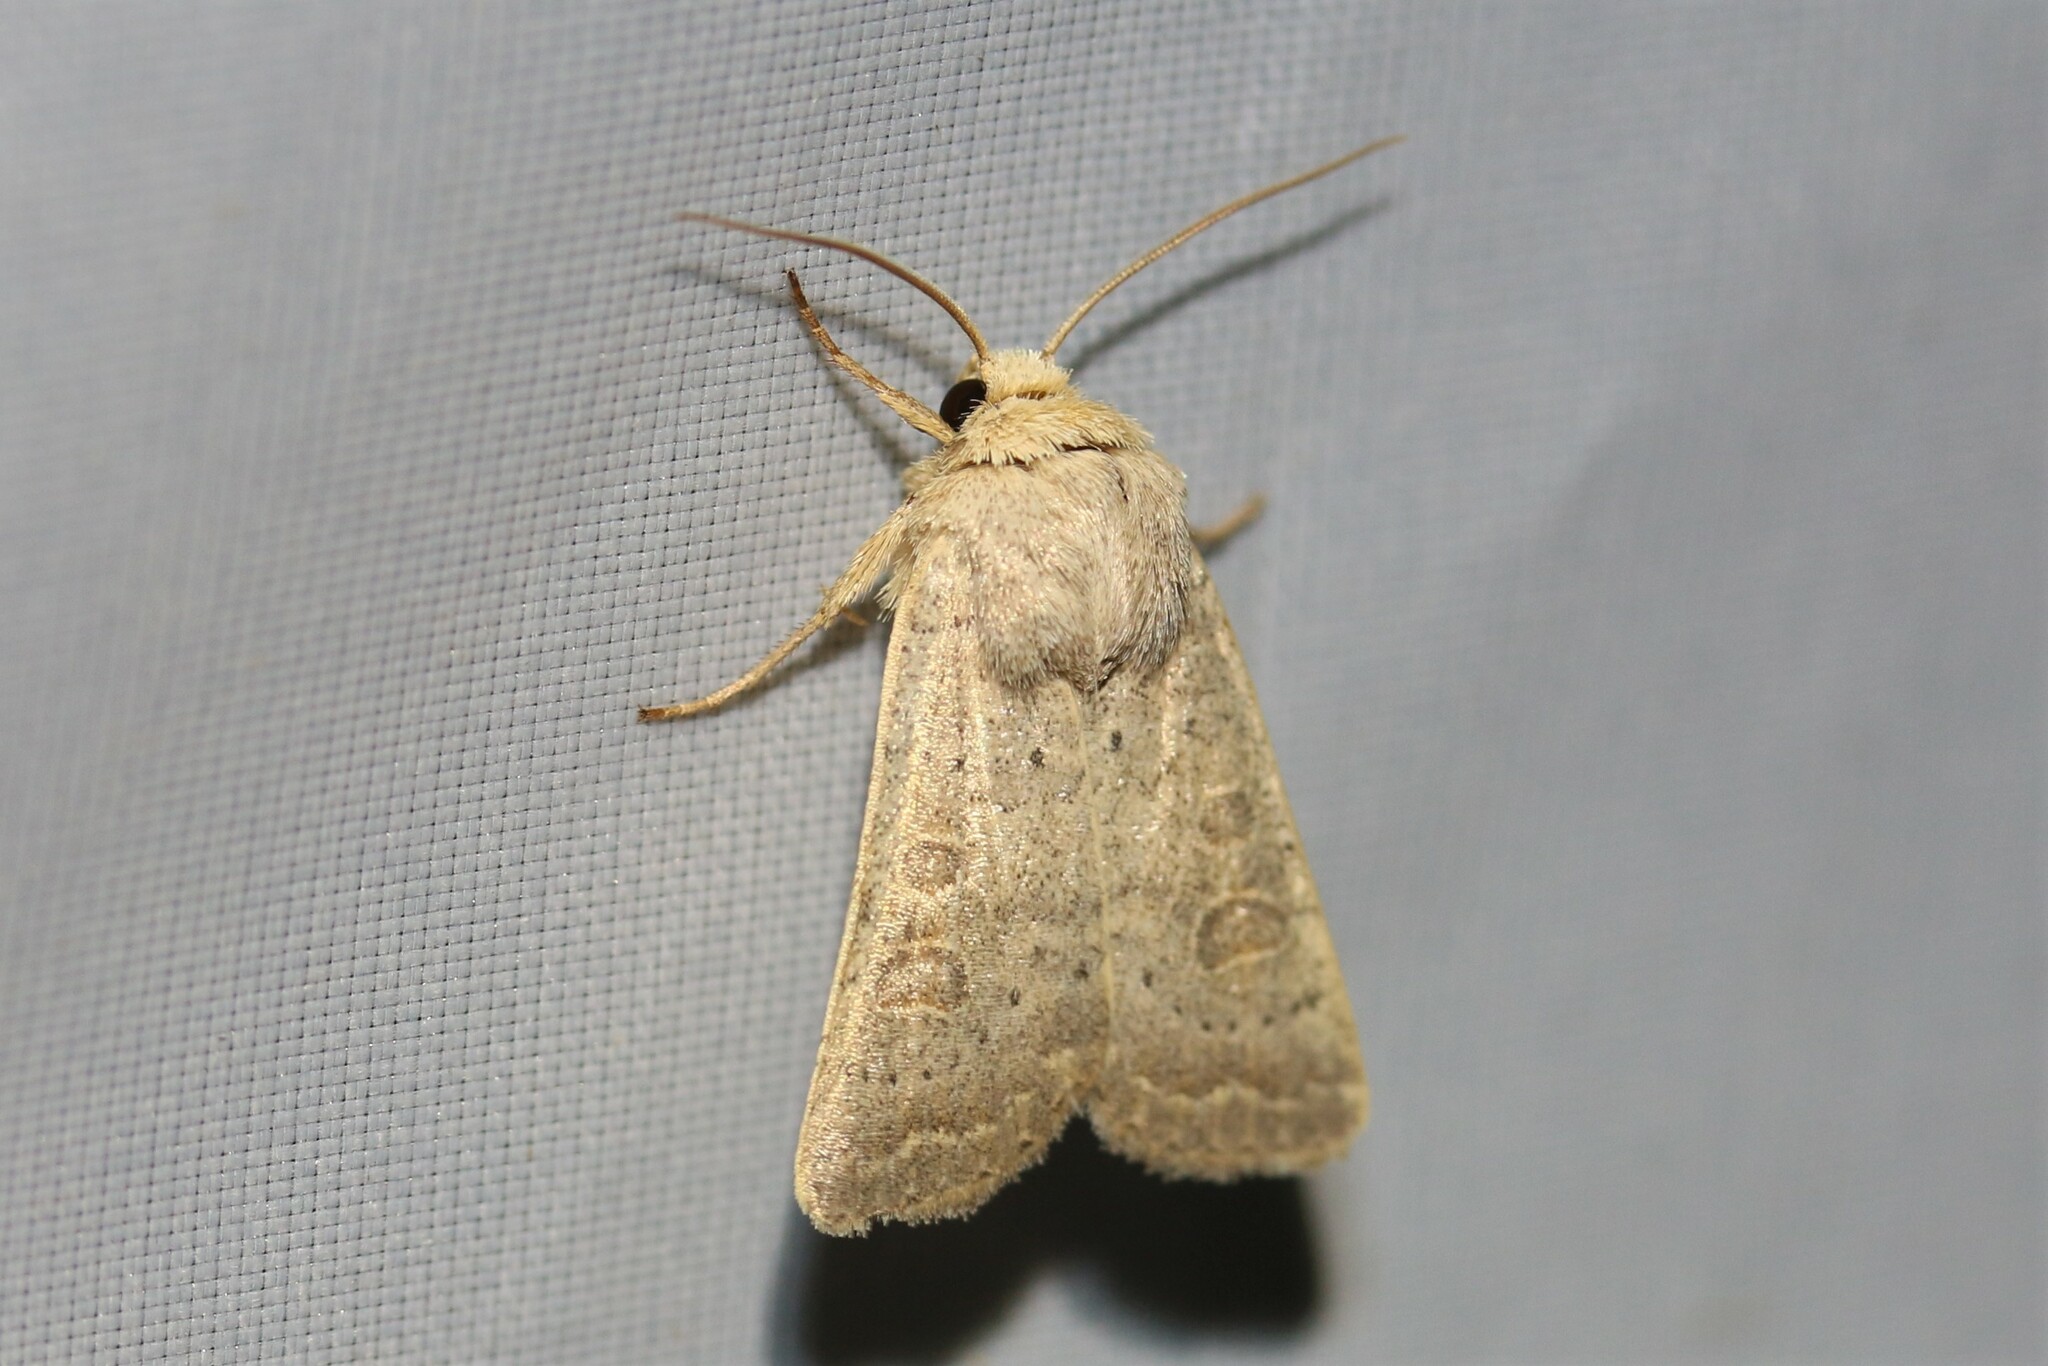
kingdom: Animalia
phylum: Arthropoda
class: Insecta
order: Lepidoptera
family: Noctuidae
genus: Hoplodrina
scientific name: Hoplodrina ambigua
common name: Vine's rustic
